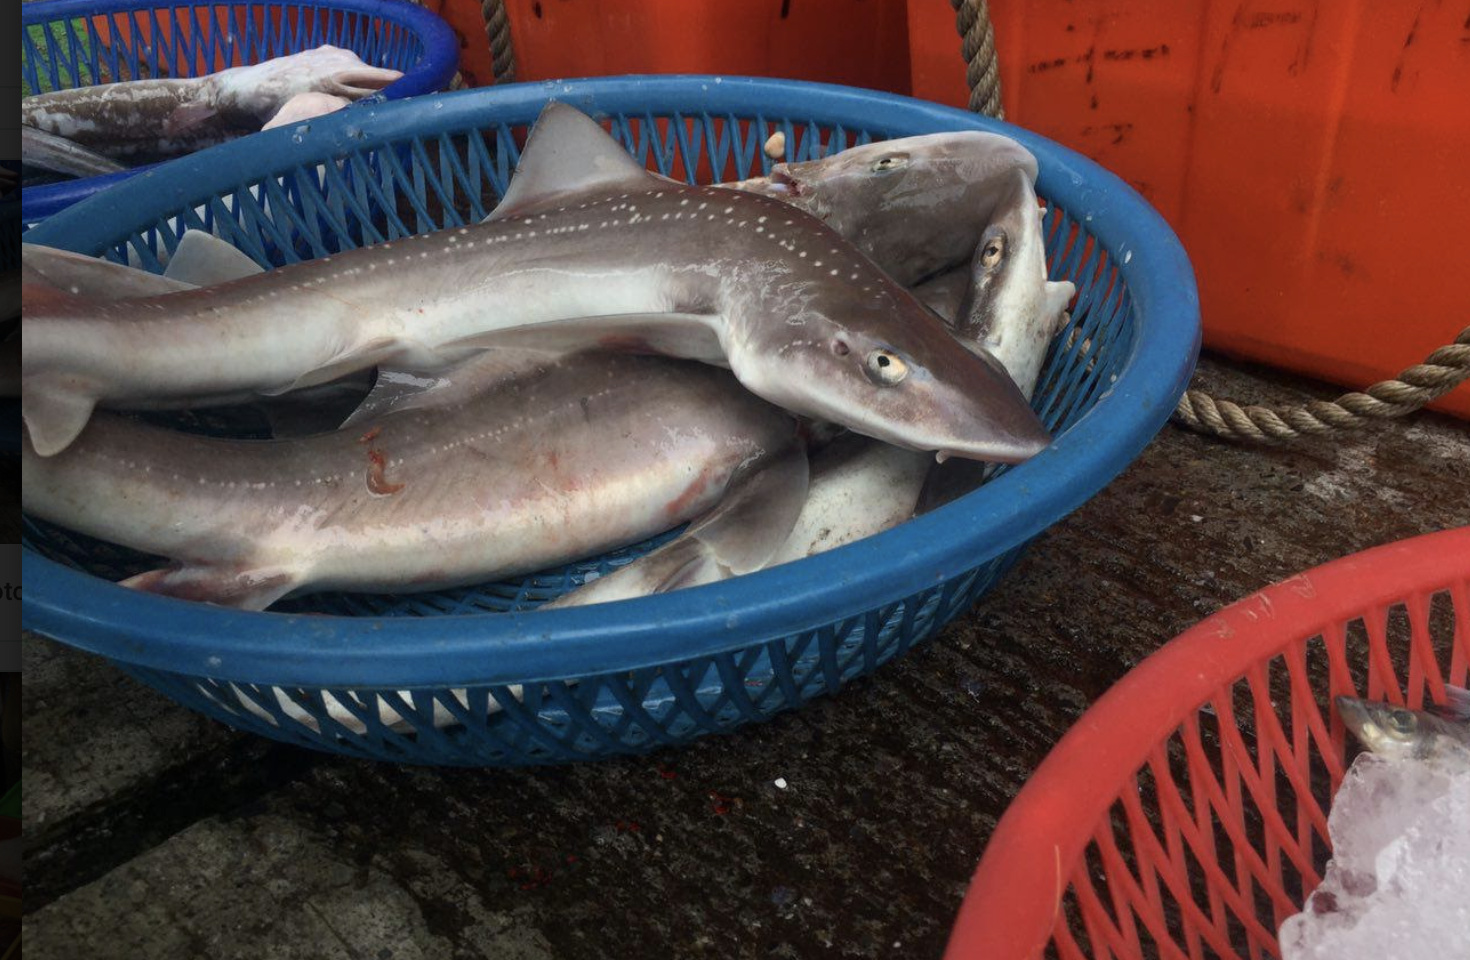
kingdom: Animalia
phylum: Chordata
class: Elasmobranchii
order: Carcharhiniformes
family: Triakidae
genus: Mustelus
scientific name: Mustelus manazo
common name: Starspotted smooth-hound
